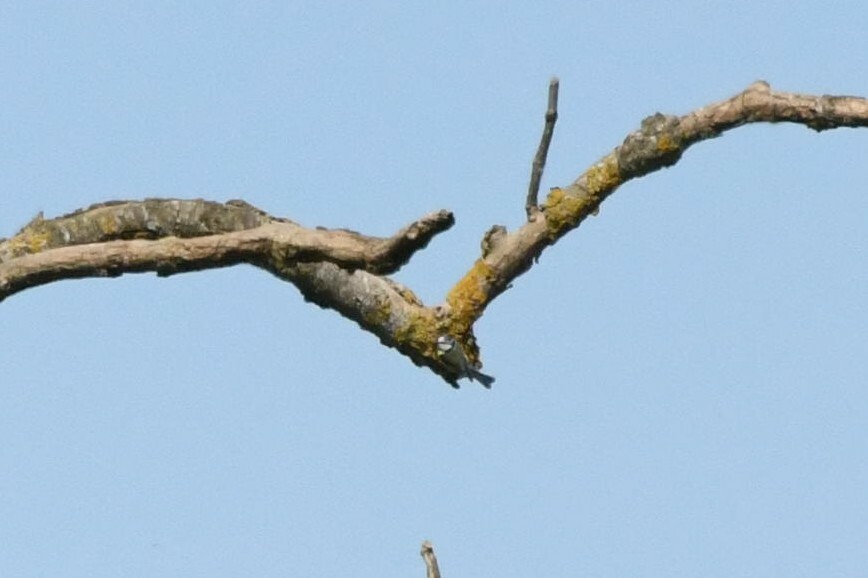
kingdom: Animalia
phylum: Chordata
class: Aves
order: Passeriformes
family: Paridae
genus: Cyanistes
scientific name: Cyanistes caeruleus
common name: Eurasian blue tit
